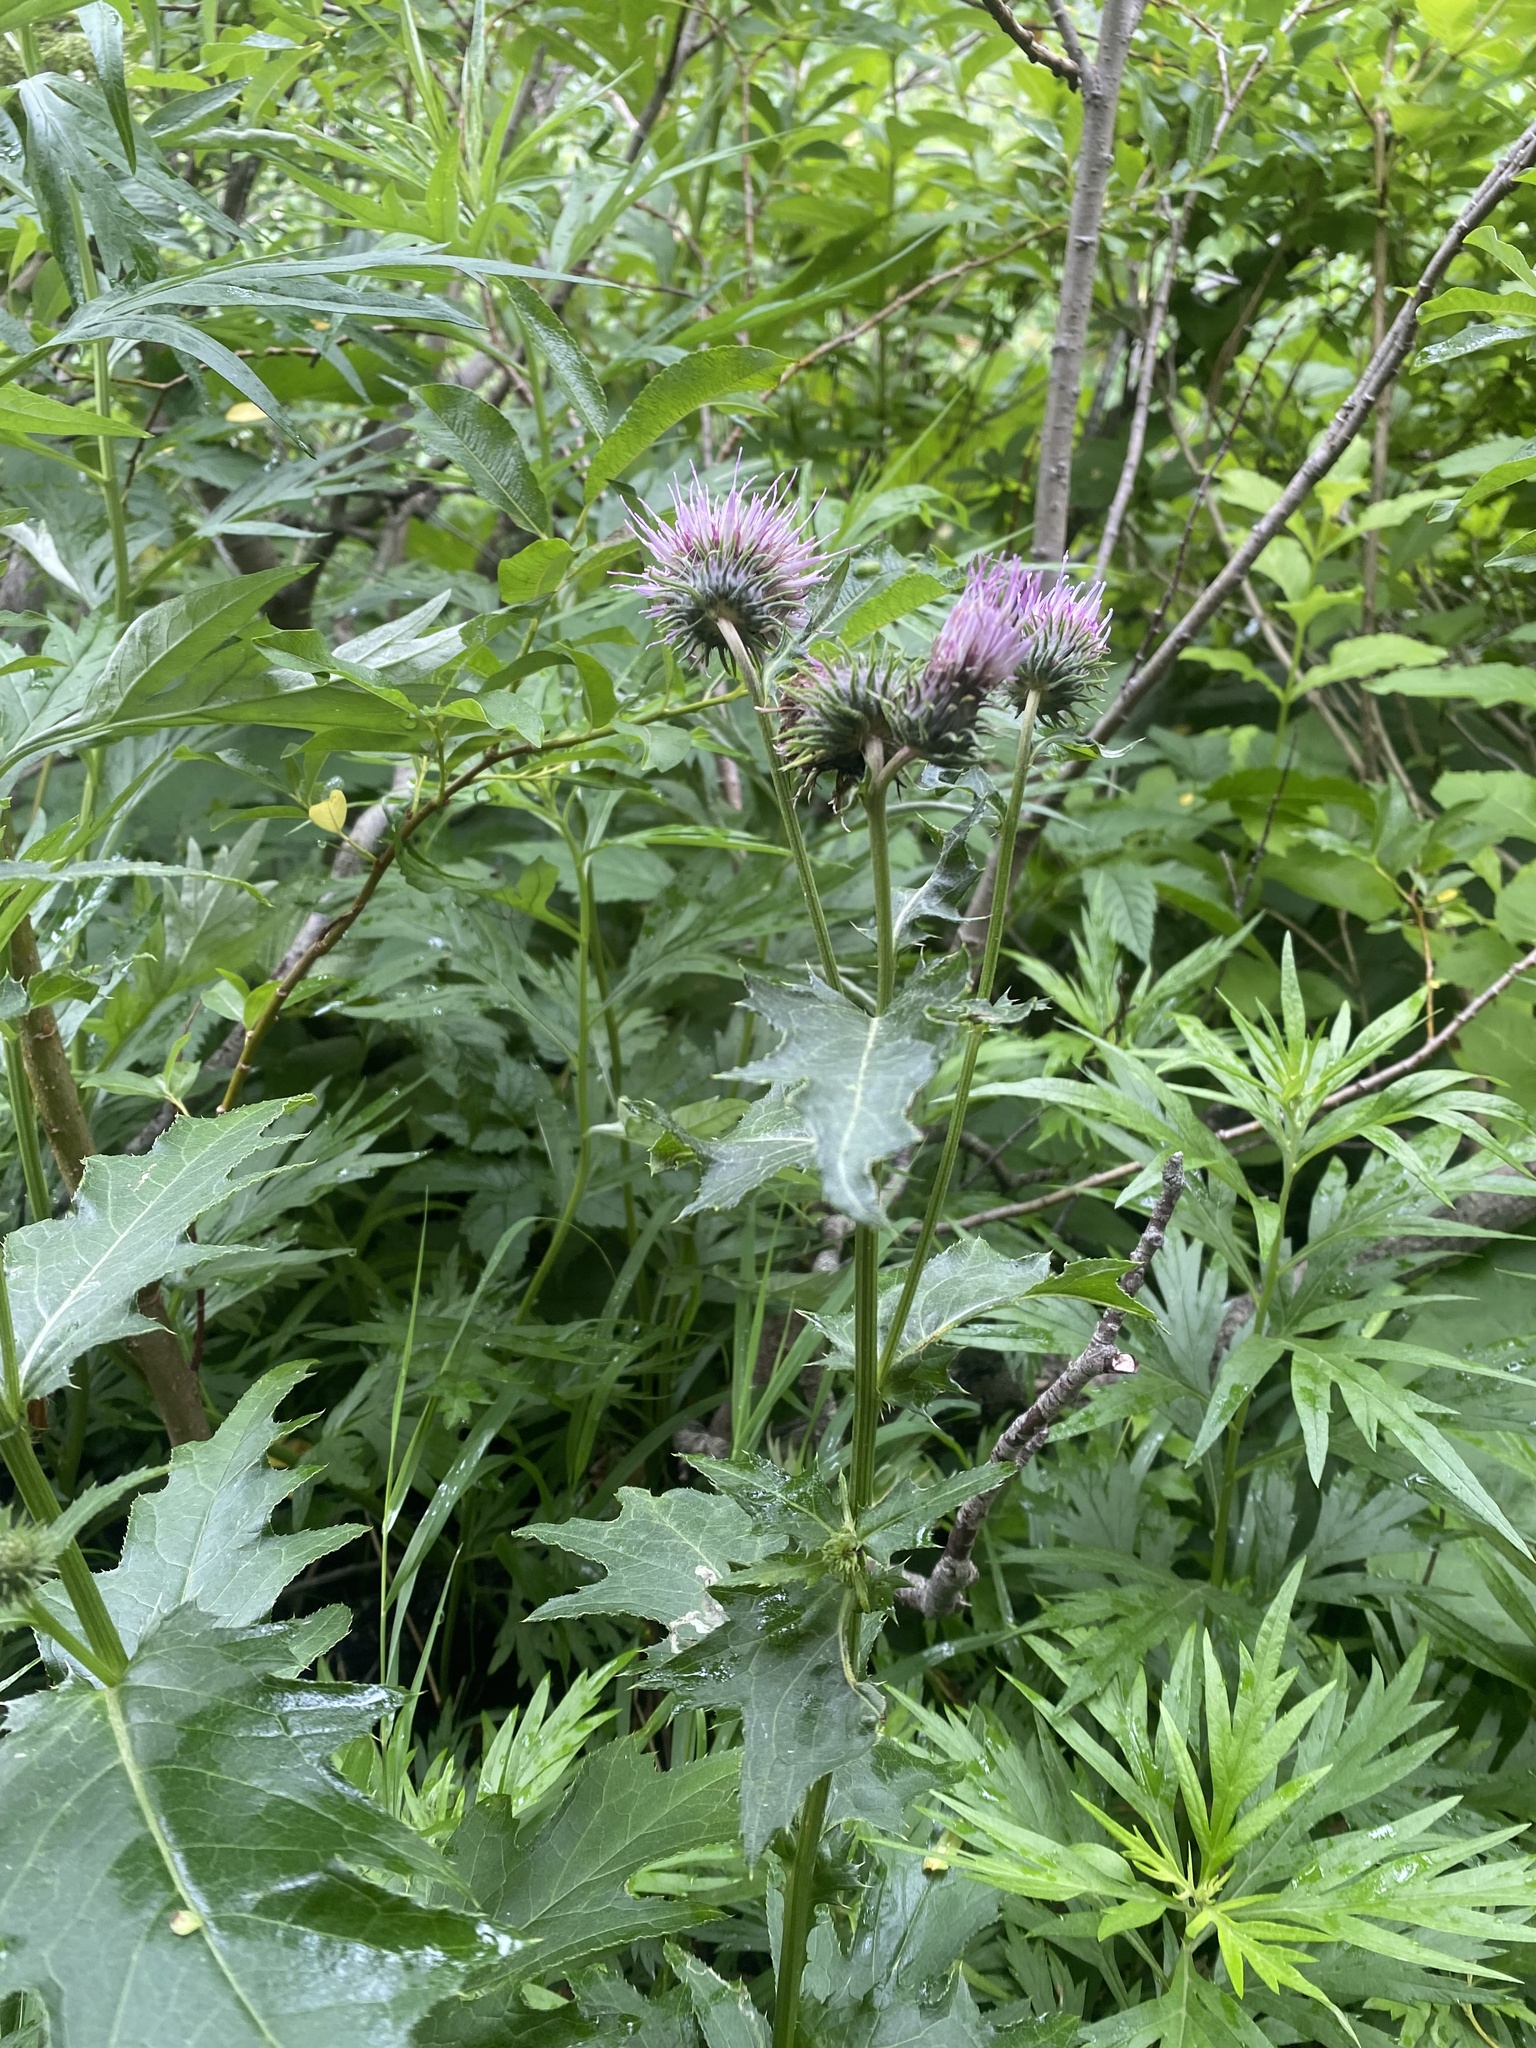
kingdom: Plantae
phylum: Tracheophyta
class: Magnoliopsida
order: Asterales
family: Asteraceae
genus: Cirsium
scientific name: Cirsium kamtschaticum
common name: Kamchatka thistle
